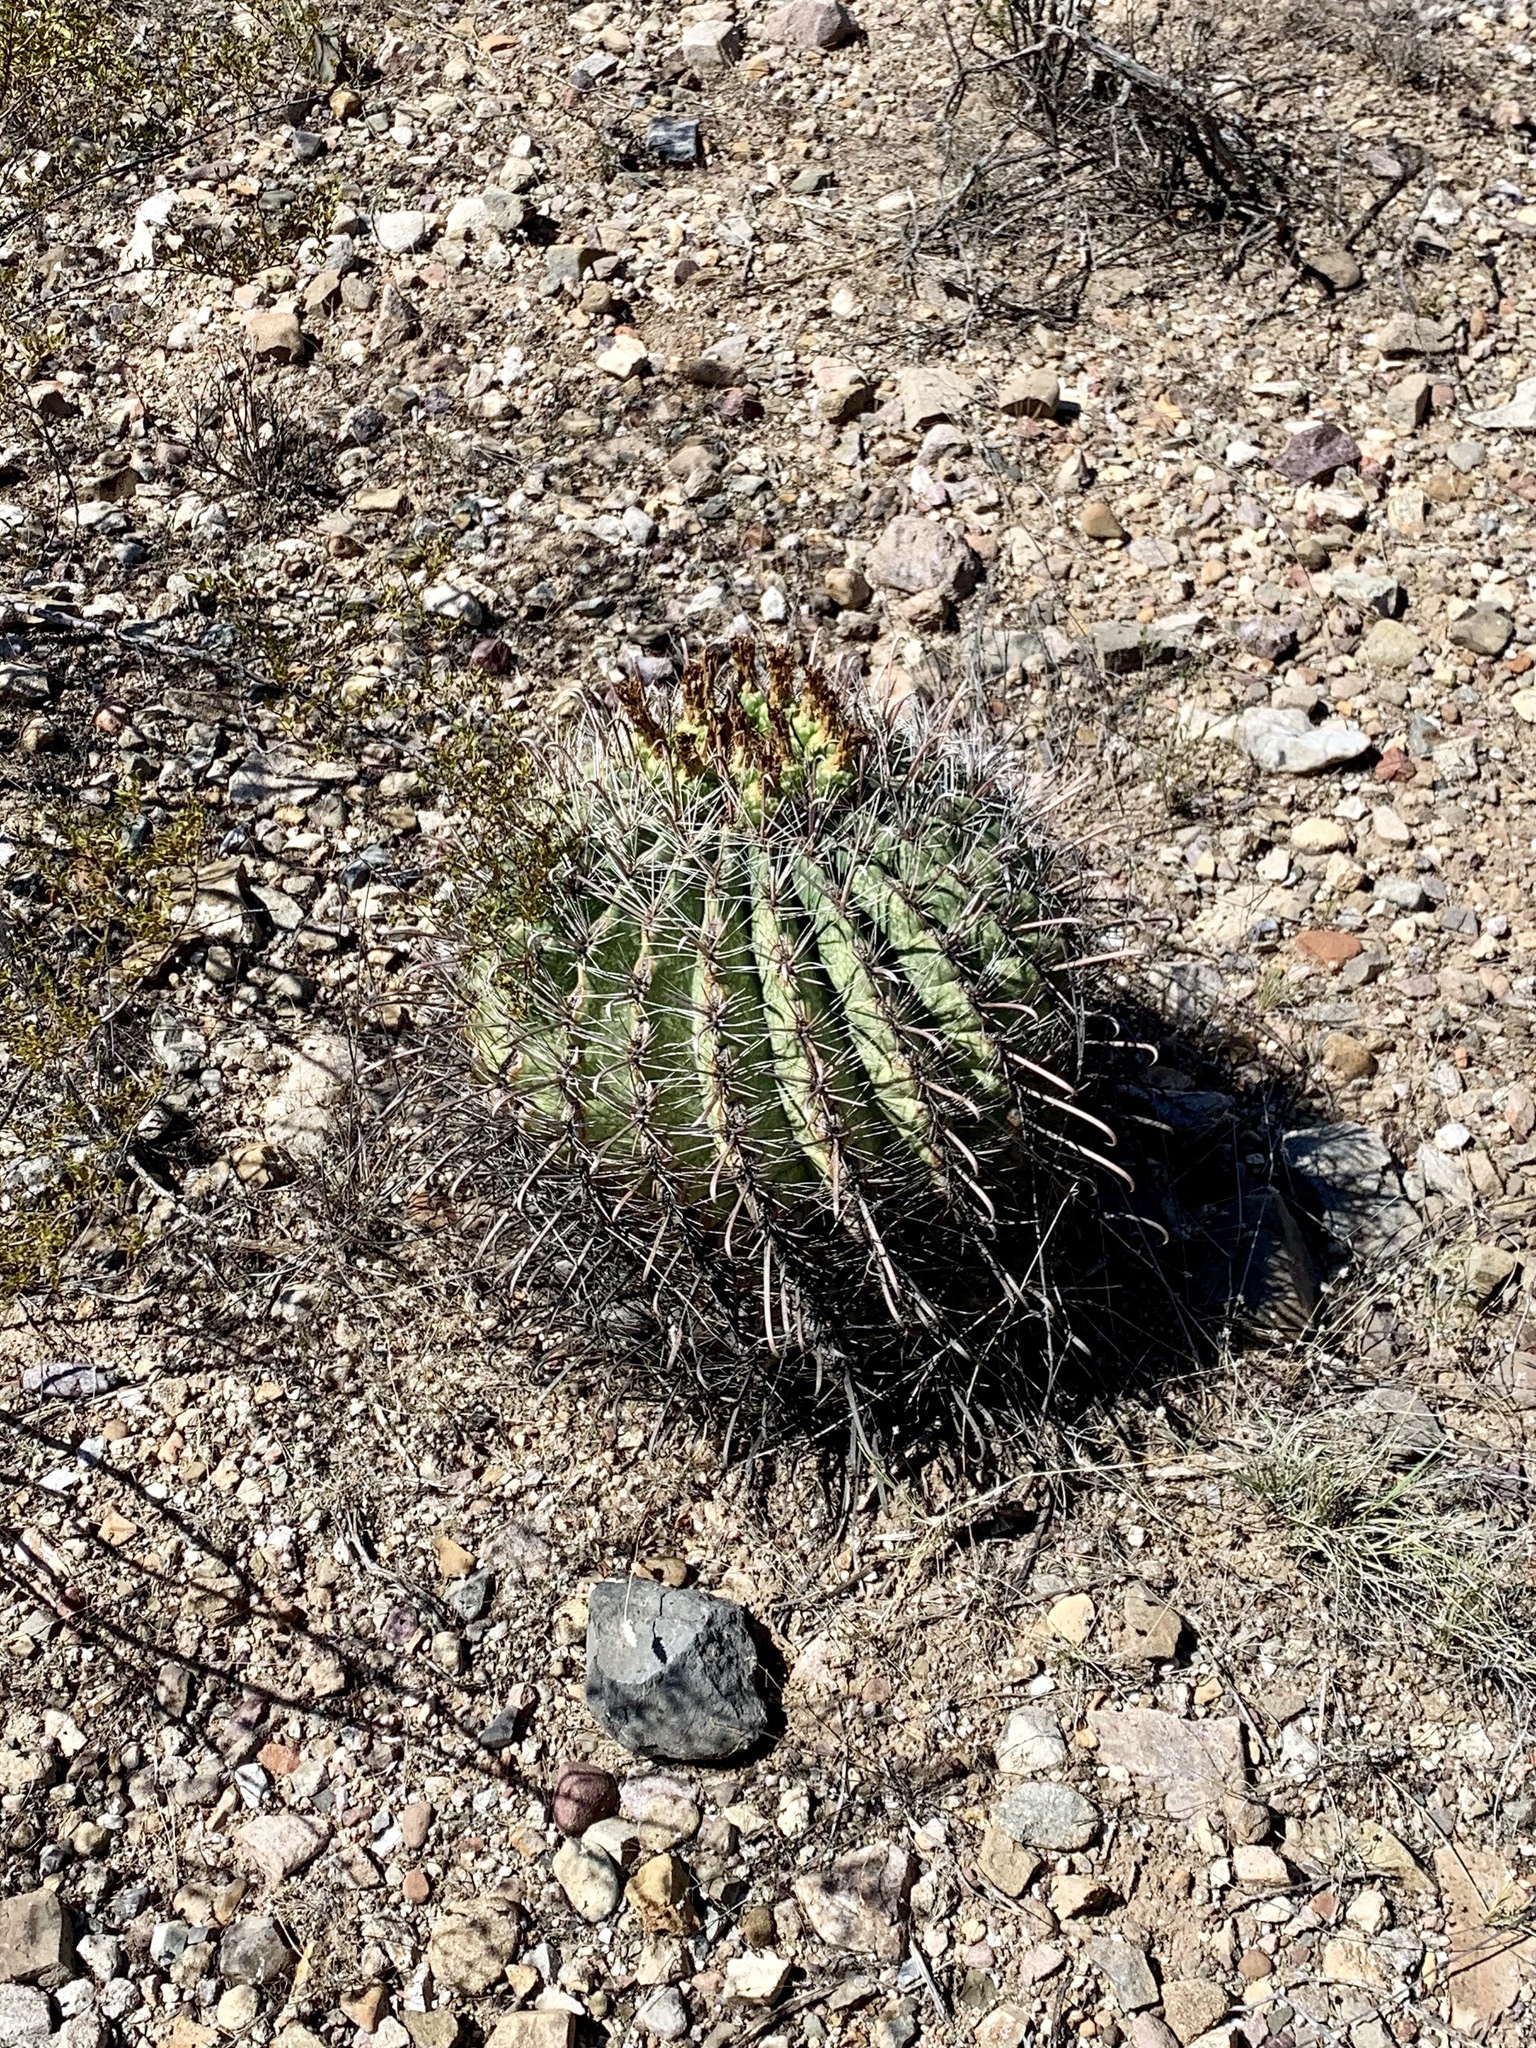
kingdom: Plantae
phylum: Tracheophyta
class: Magnoliopsida
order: Caryophyllales
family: Cactaceae
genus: Ferocactus
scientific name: Ferocactus wislizeni
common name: Candy barrel cactus
